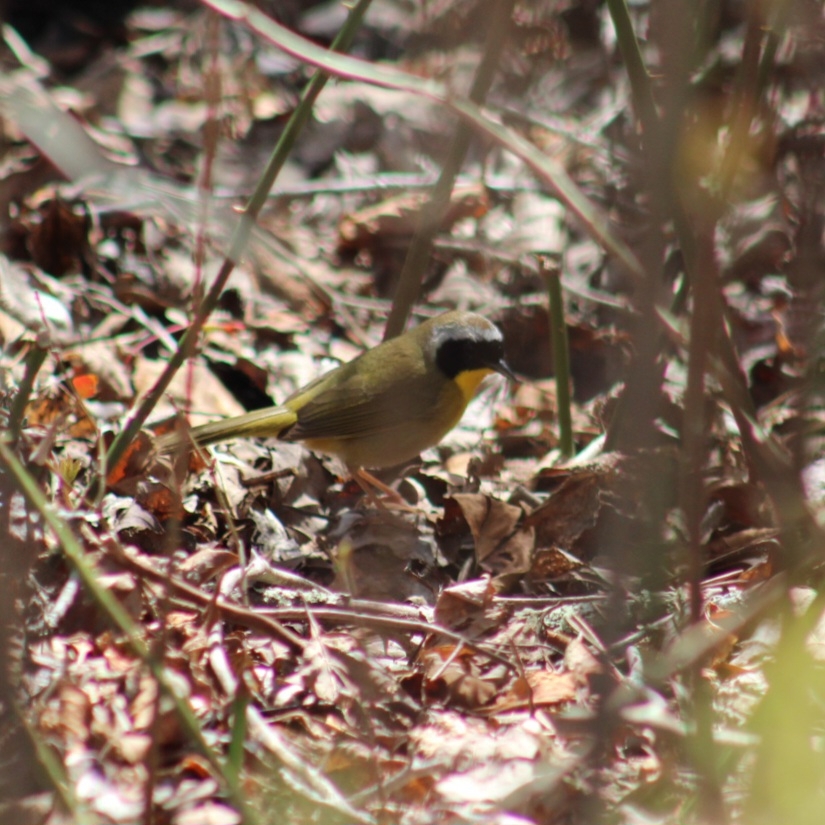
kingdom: Animalia
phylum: Chordata
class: Aves
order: Passeriformes
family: Parulidae
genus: Geothlypis
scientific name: Geothlypis trichas
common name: Common yellowthroat
